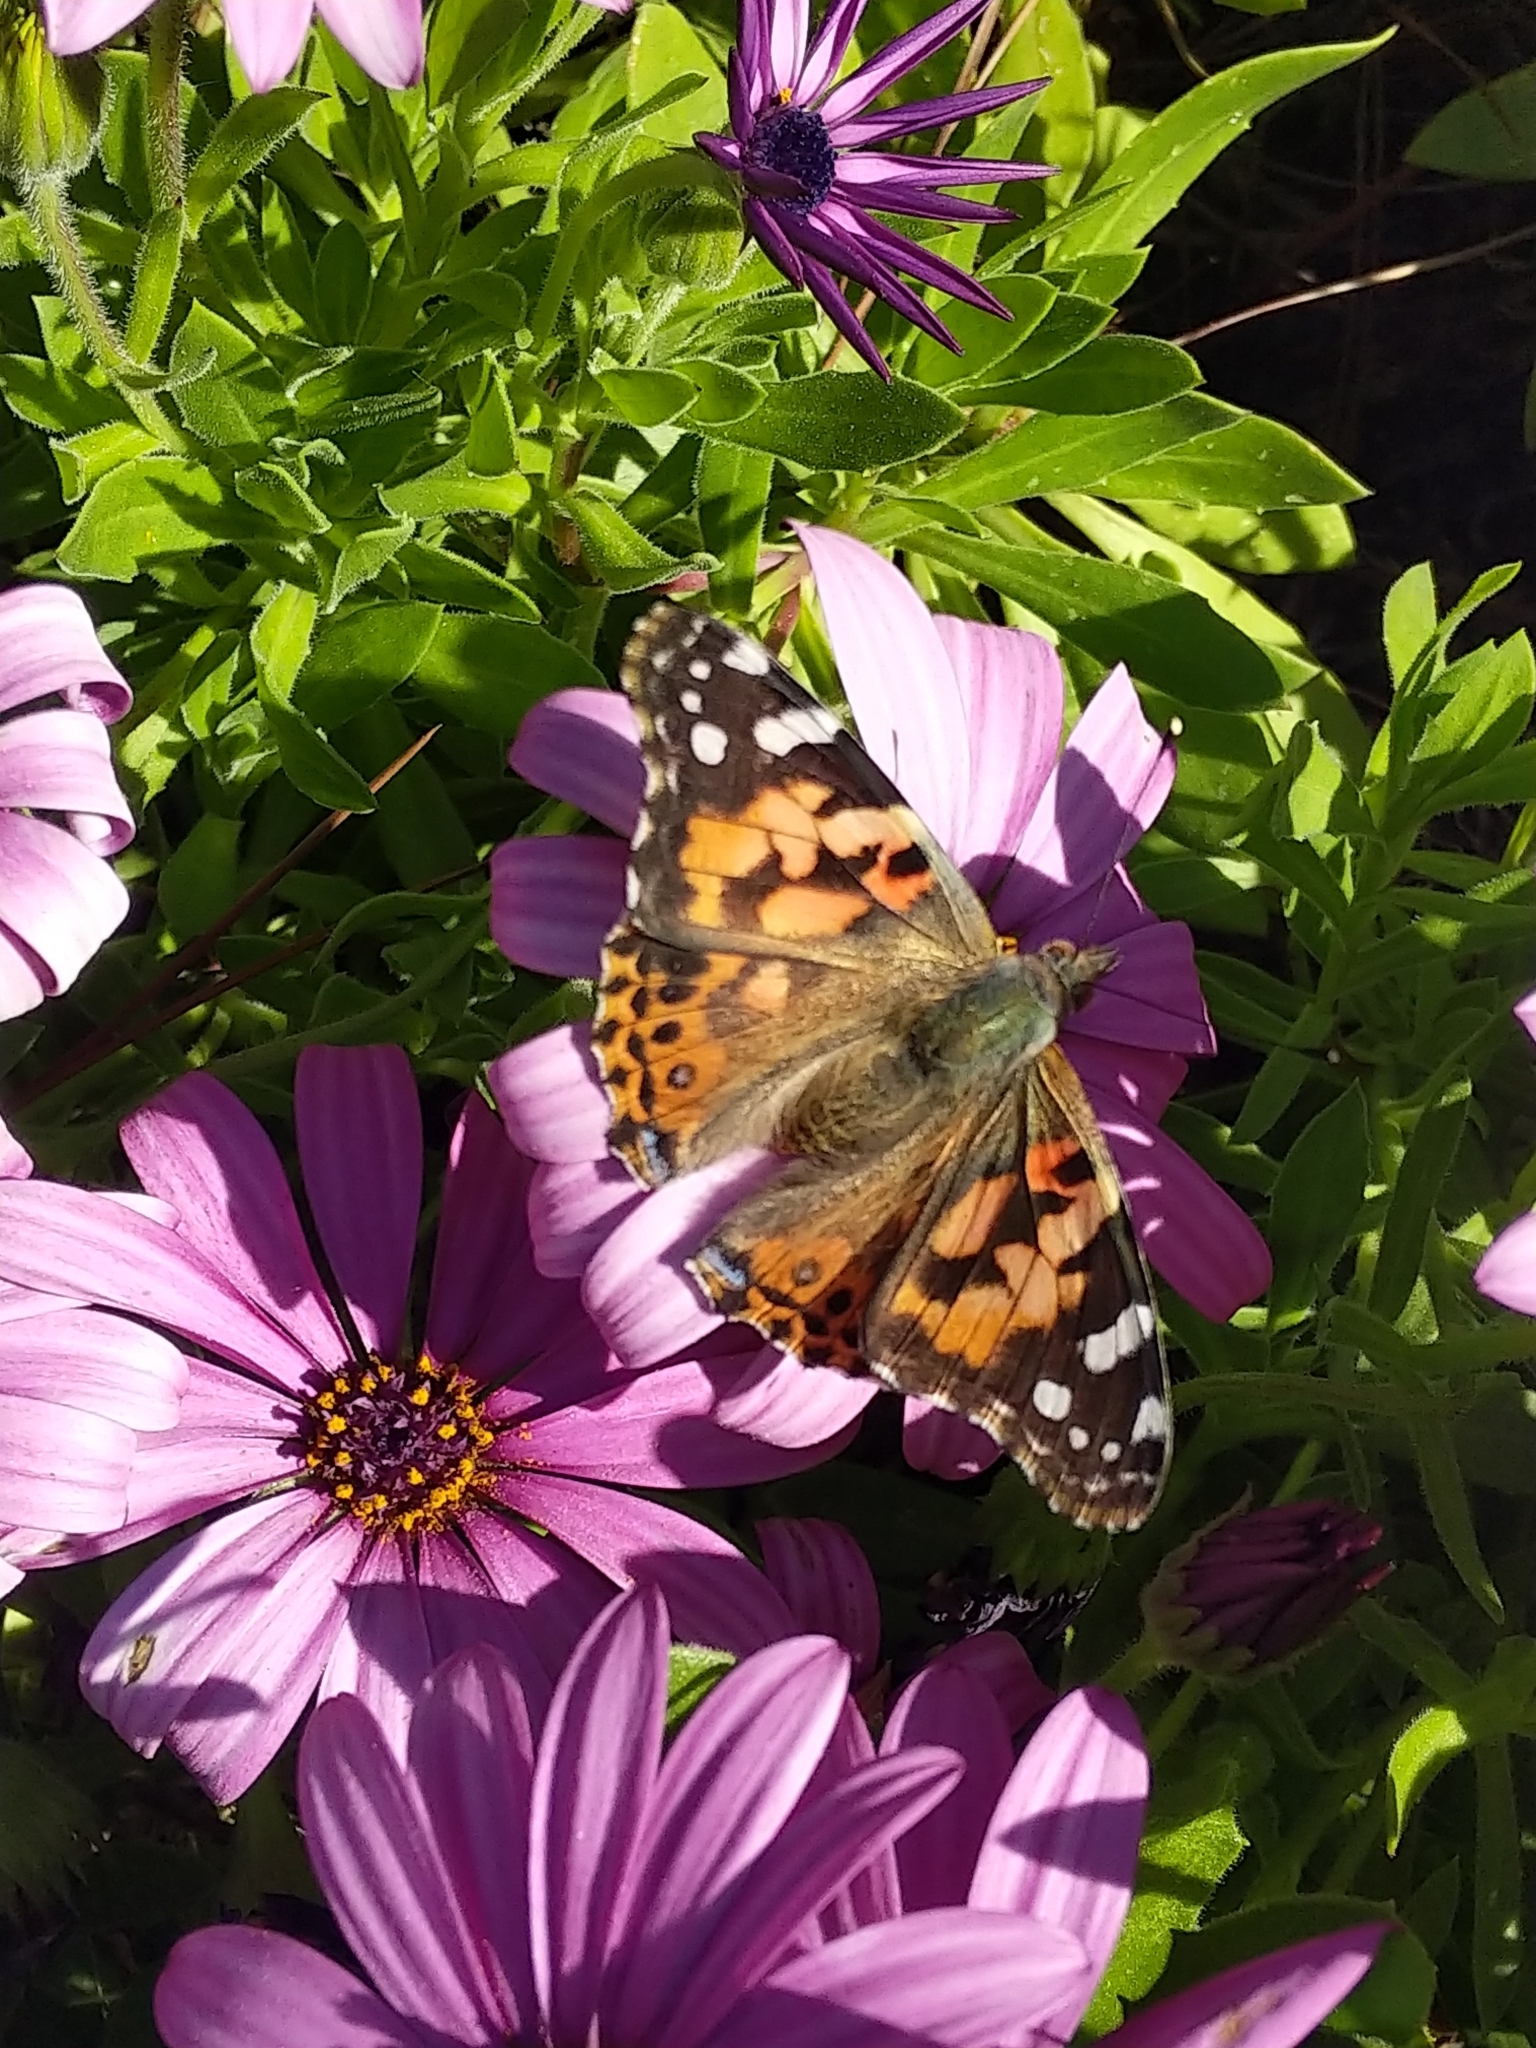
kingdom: Animalia
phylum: Arthropoda
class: Insecta
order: Lepidoptera
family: Nymphalidae
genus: Vanessa
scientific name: Vanessa cardui
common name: Painted lady
